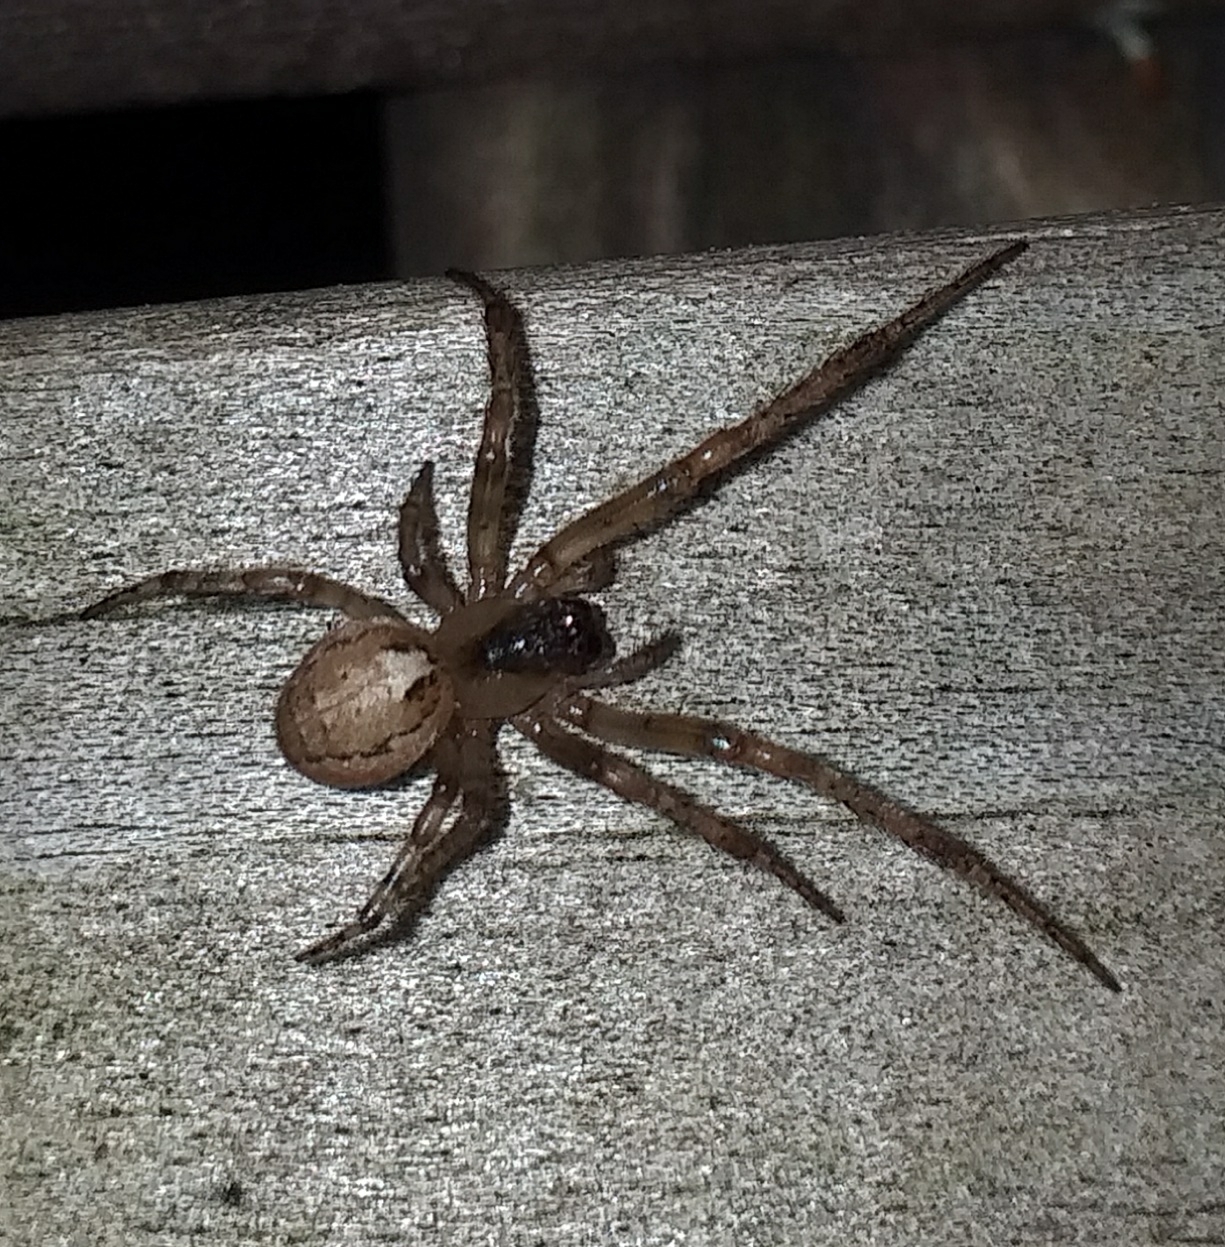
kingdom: Animalia
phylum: Arthropoda
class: Arachnida
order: Araneae
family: Araneidae
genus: Zygiella
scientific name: Zygiella x-notata
